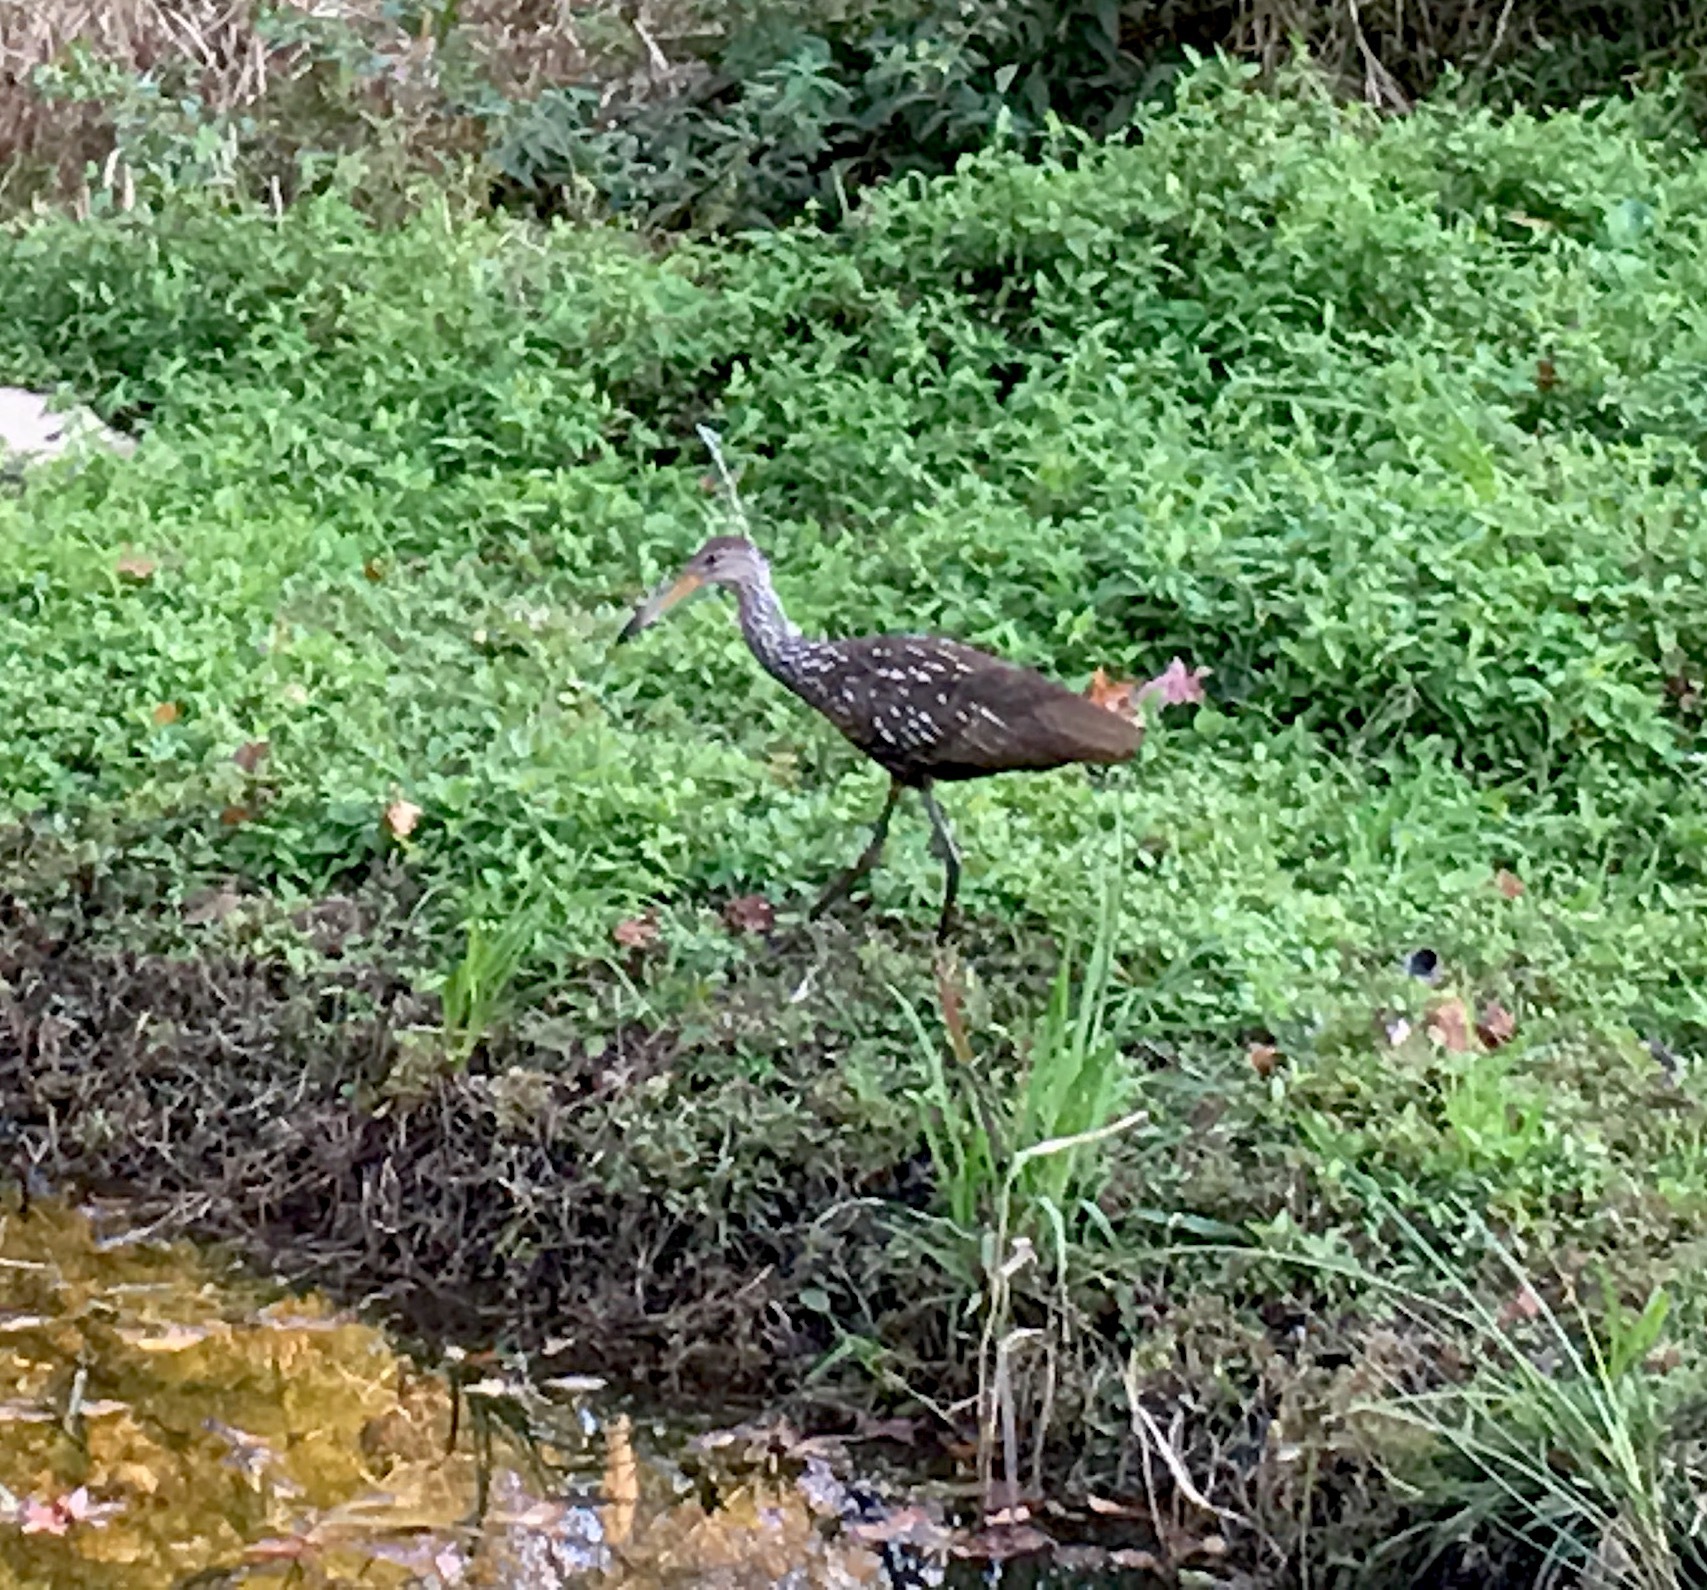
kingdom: Animalia
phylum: Chordata
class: Aves
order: Gruiformes
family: Aramidae
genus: Aramus
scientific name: Aramus guarauna
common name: Limpkin
